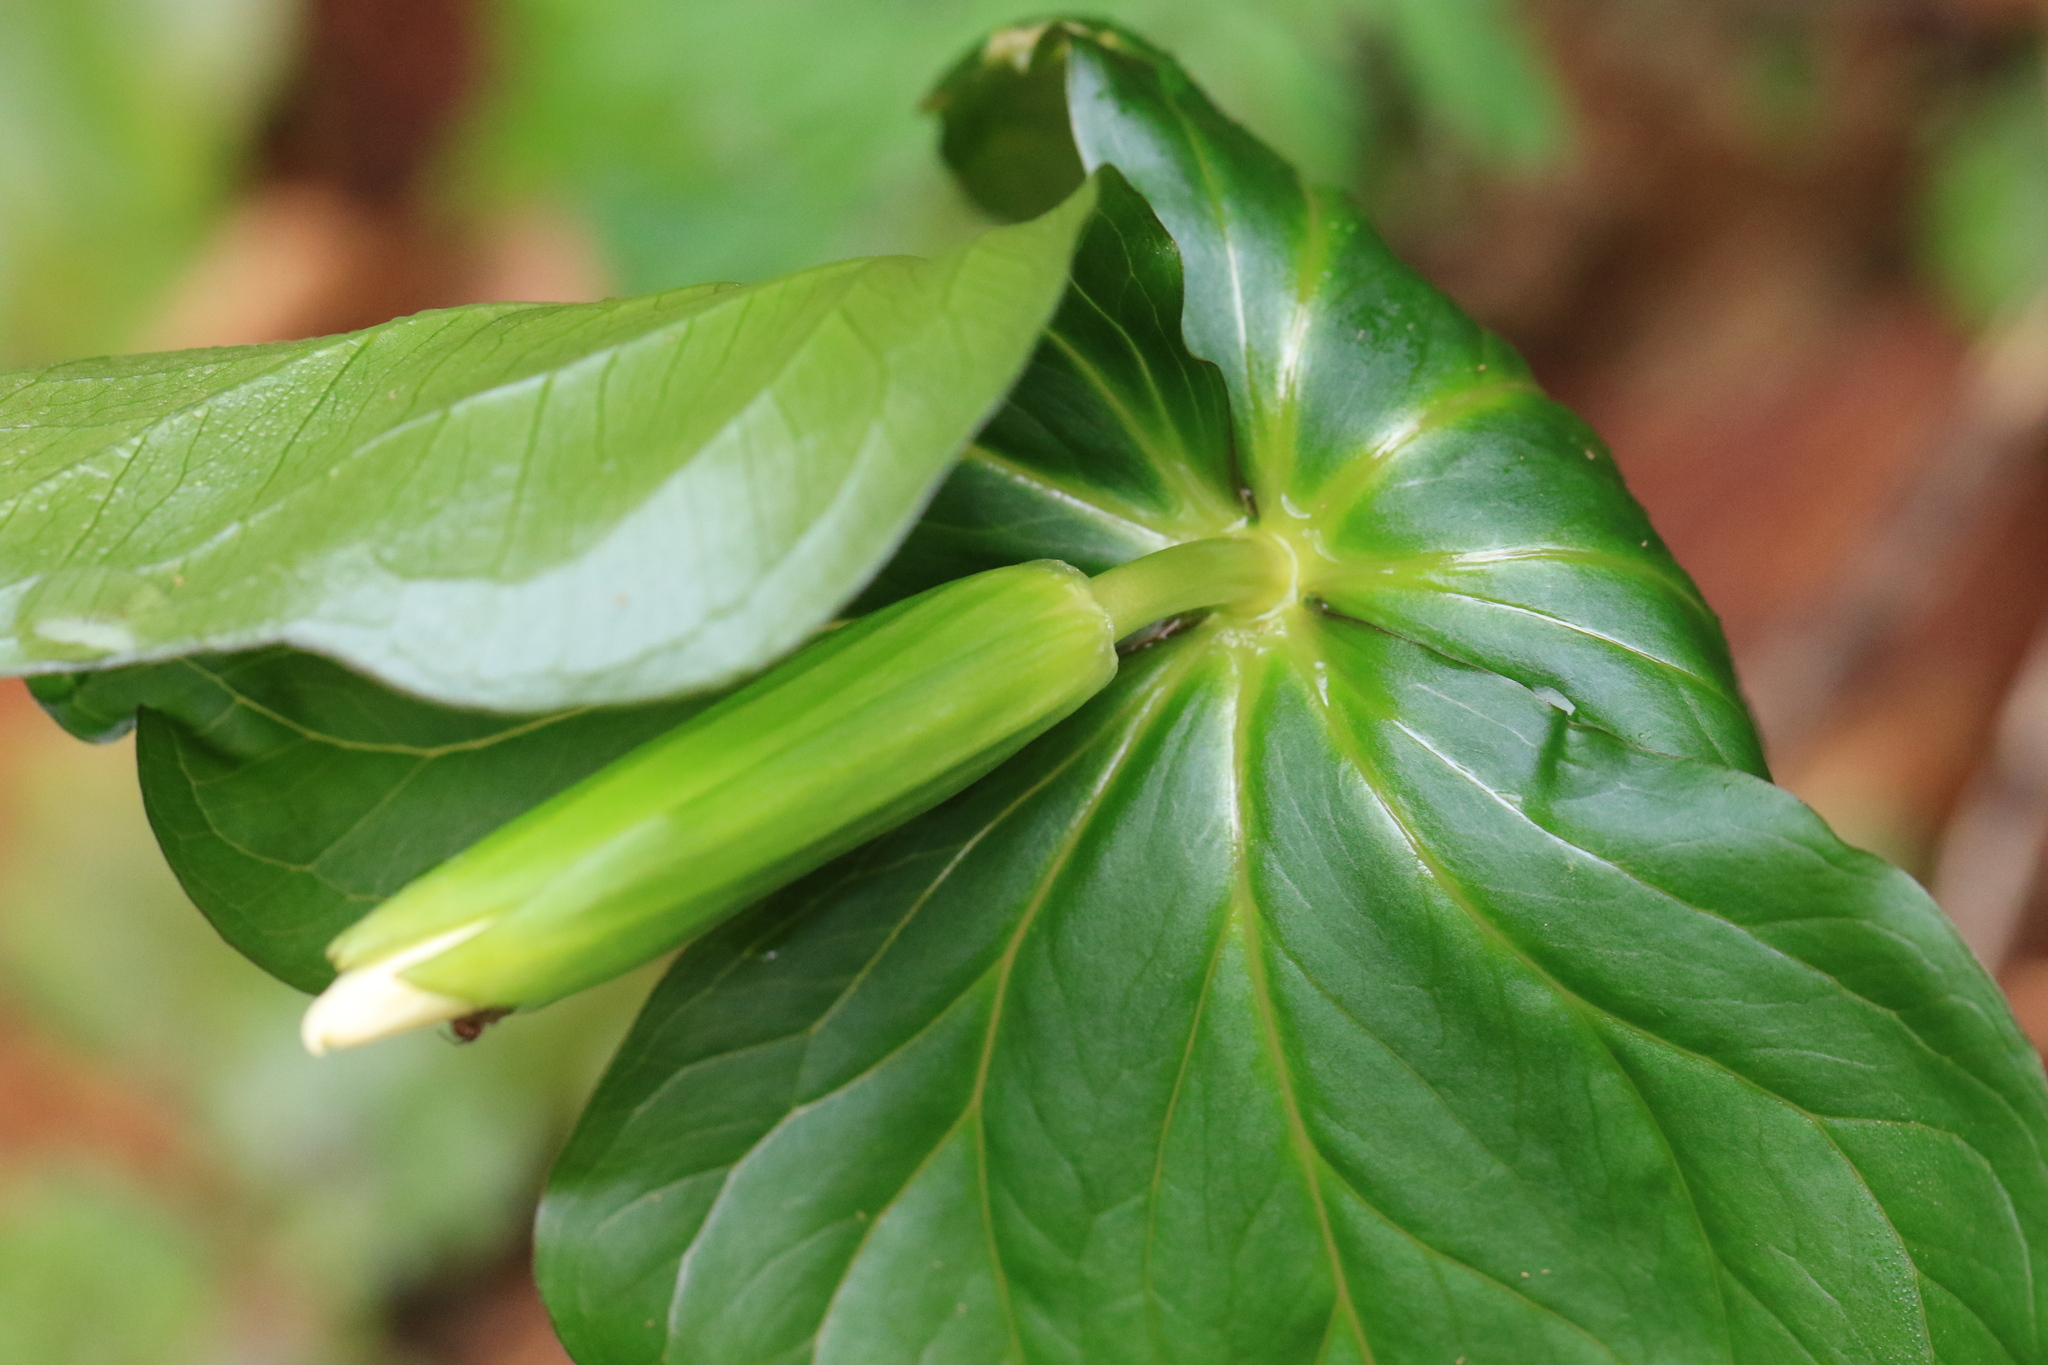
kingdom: Plantae
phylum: Tracheophyta
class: Liliopsida
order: Liliales
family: Melanthiaceae
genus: Trillium
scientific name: Trillium ovatum
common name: Pacific trillium
